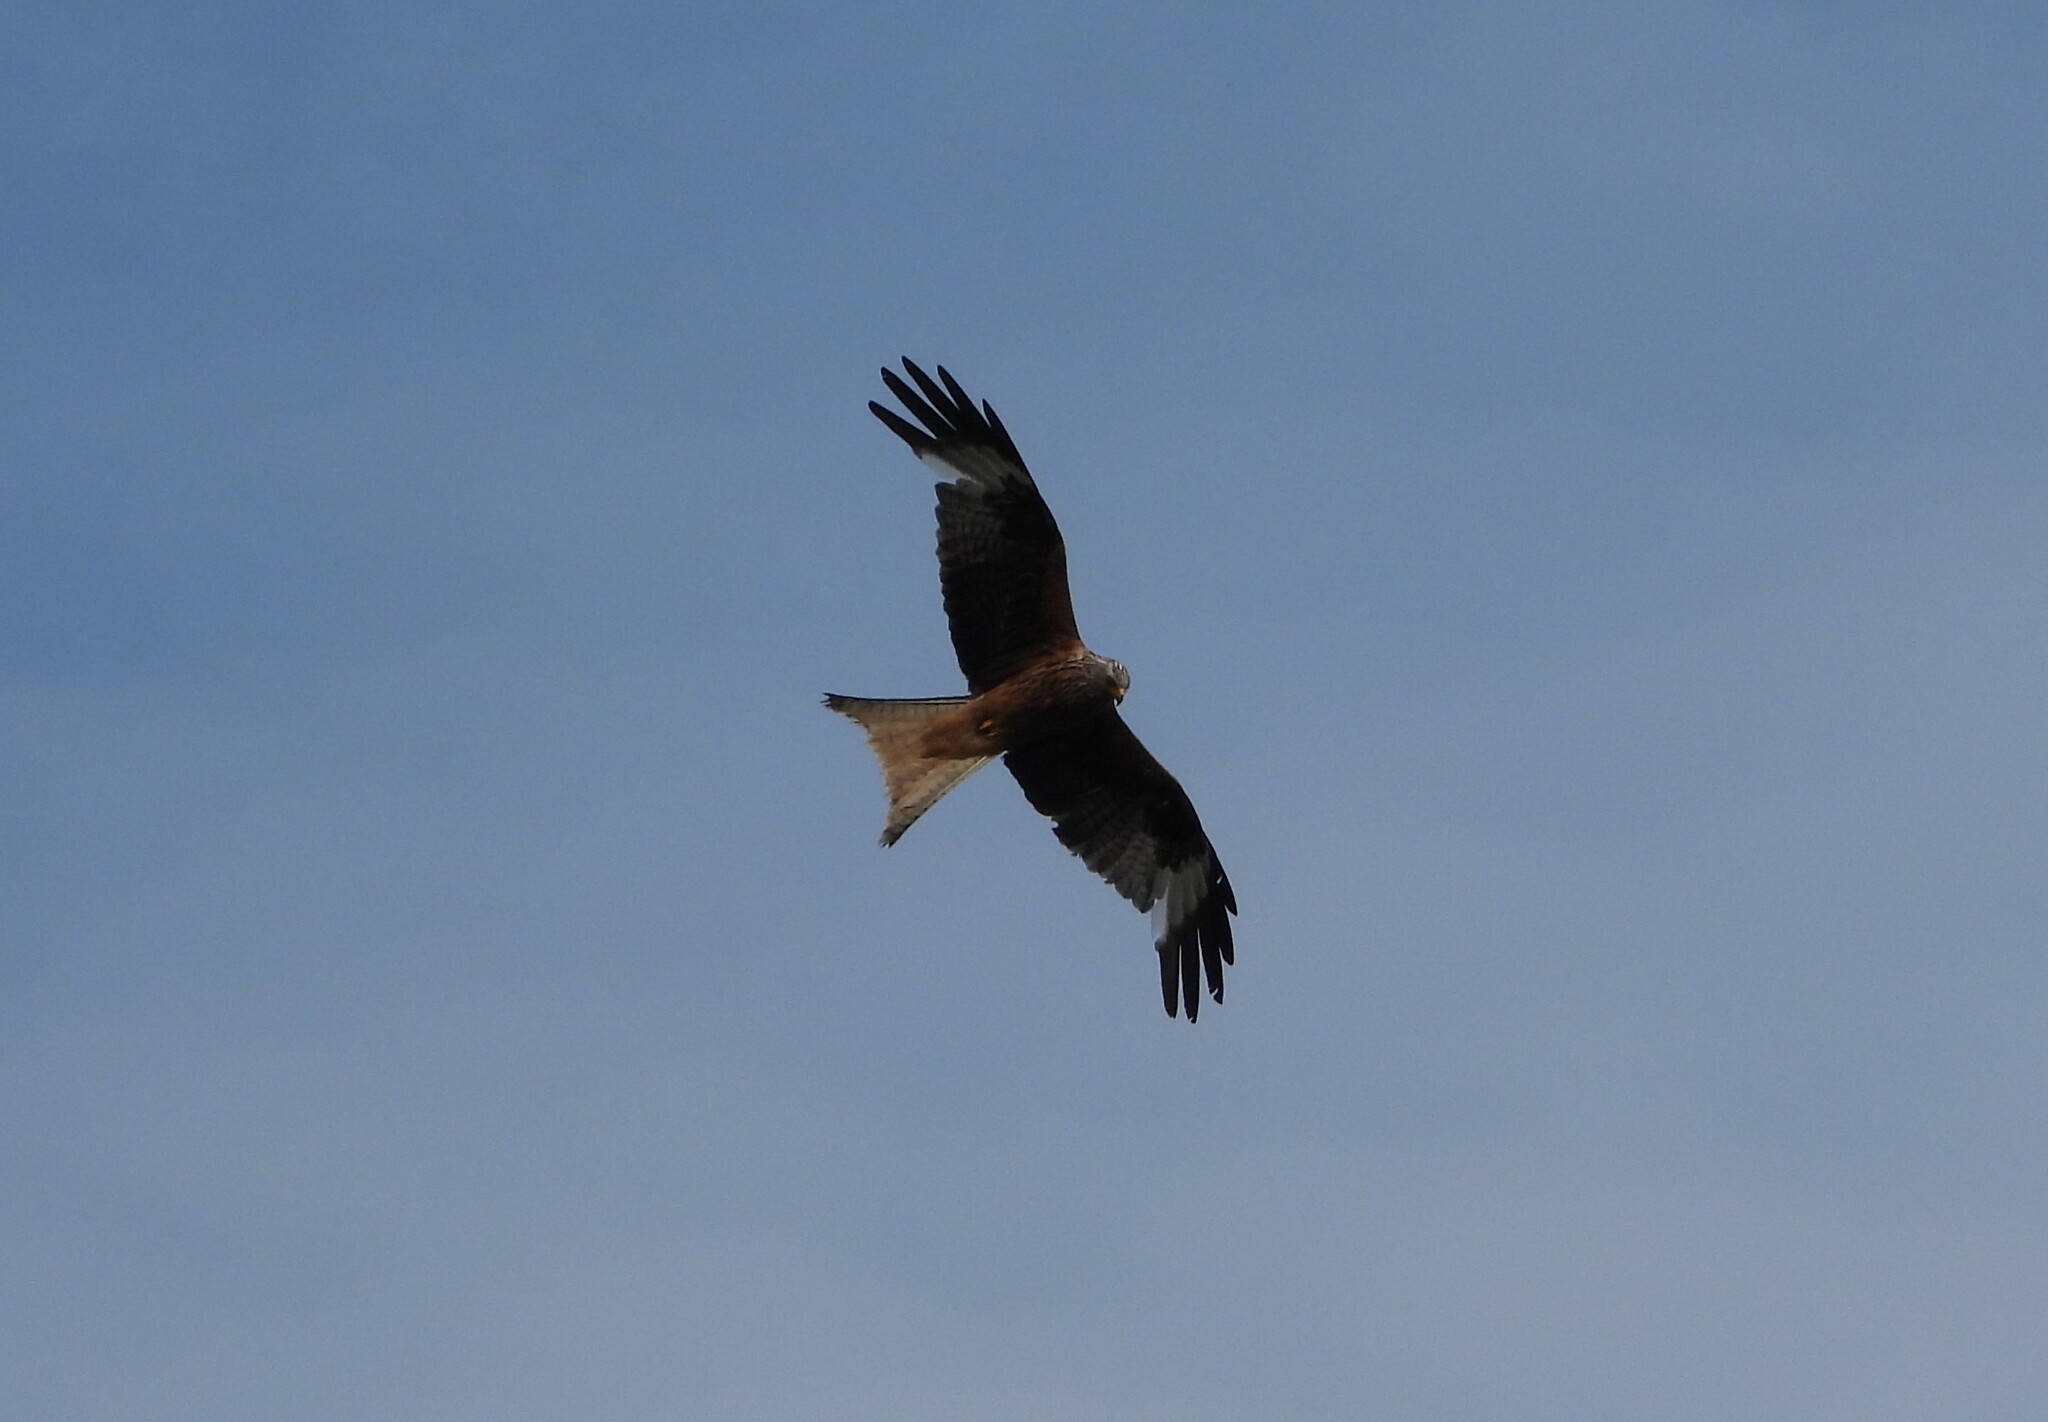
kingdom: Animalia
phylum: Chordata
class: Aves
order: Accipitriformes
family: Accipitridae
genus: Milvus
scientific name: Milvus milvus
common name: Red kite
